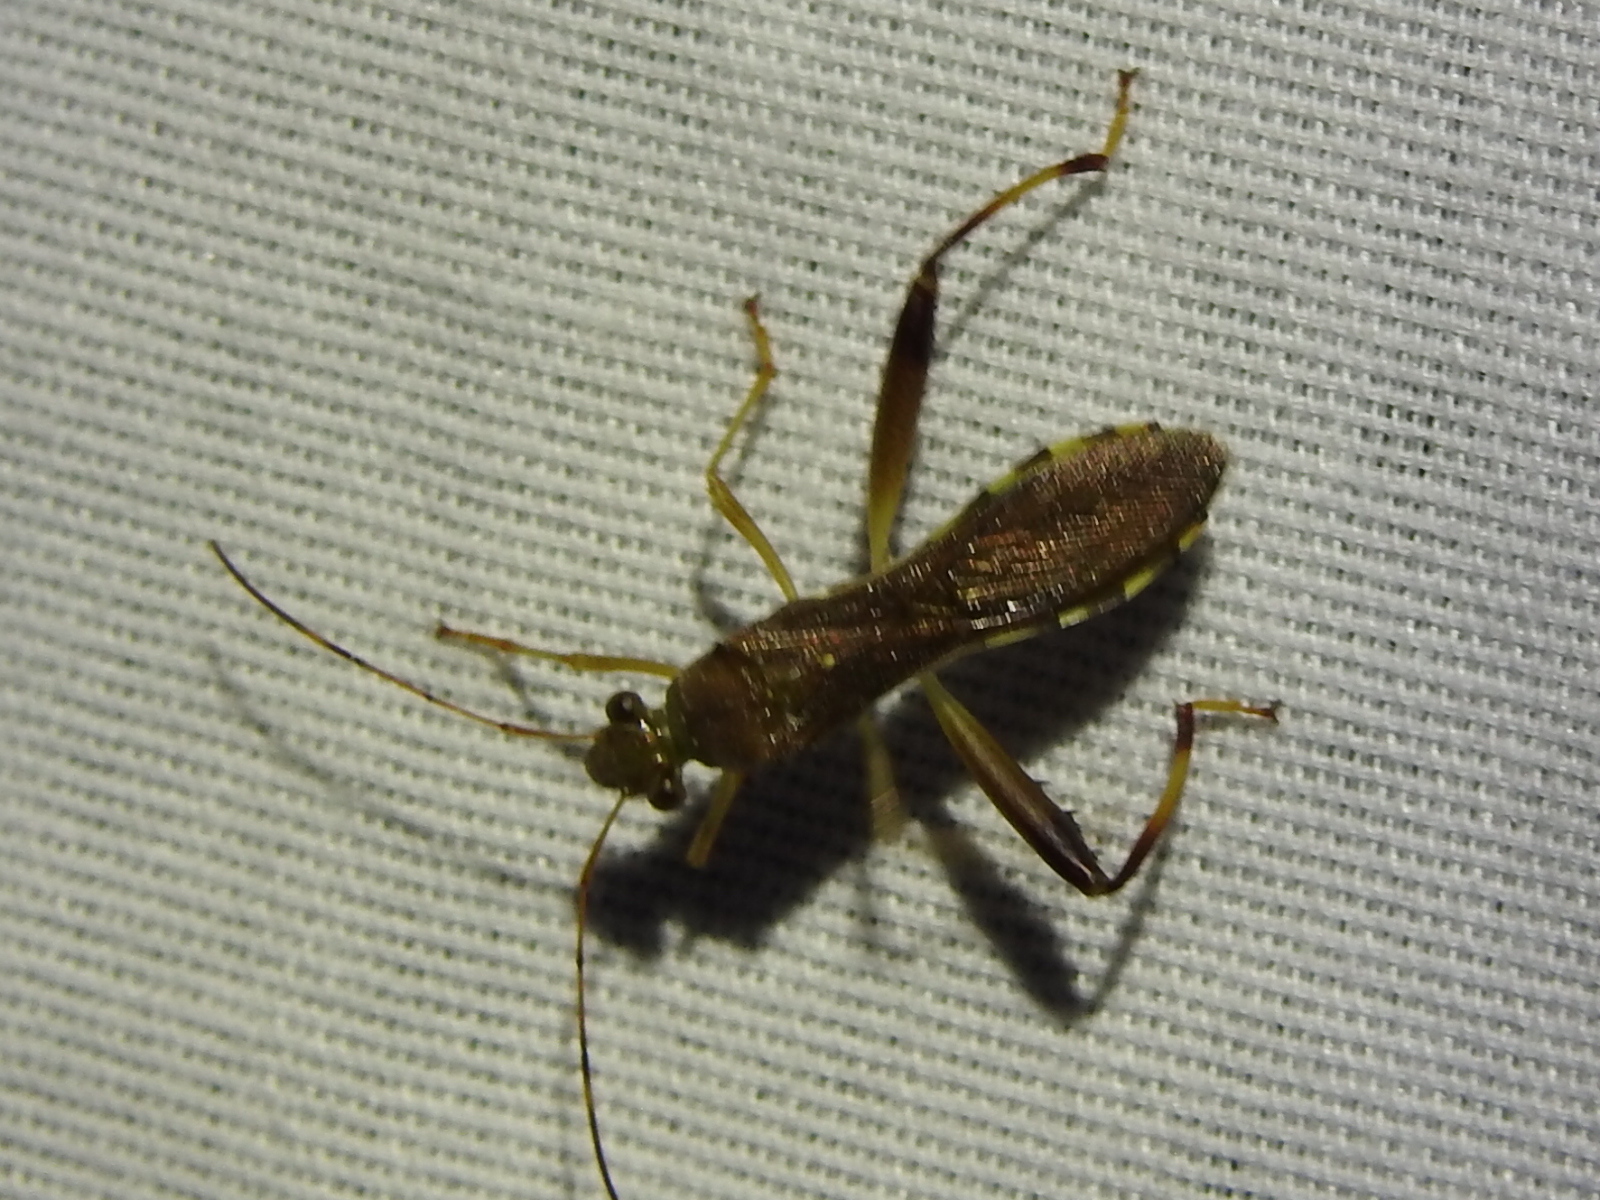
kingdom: Animalia
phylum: Arthropoda
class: Insecta
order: Hemiptera
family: Alydidae
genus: Hyalymenus
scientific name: Hyalymenus tarsatus
